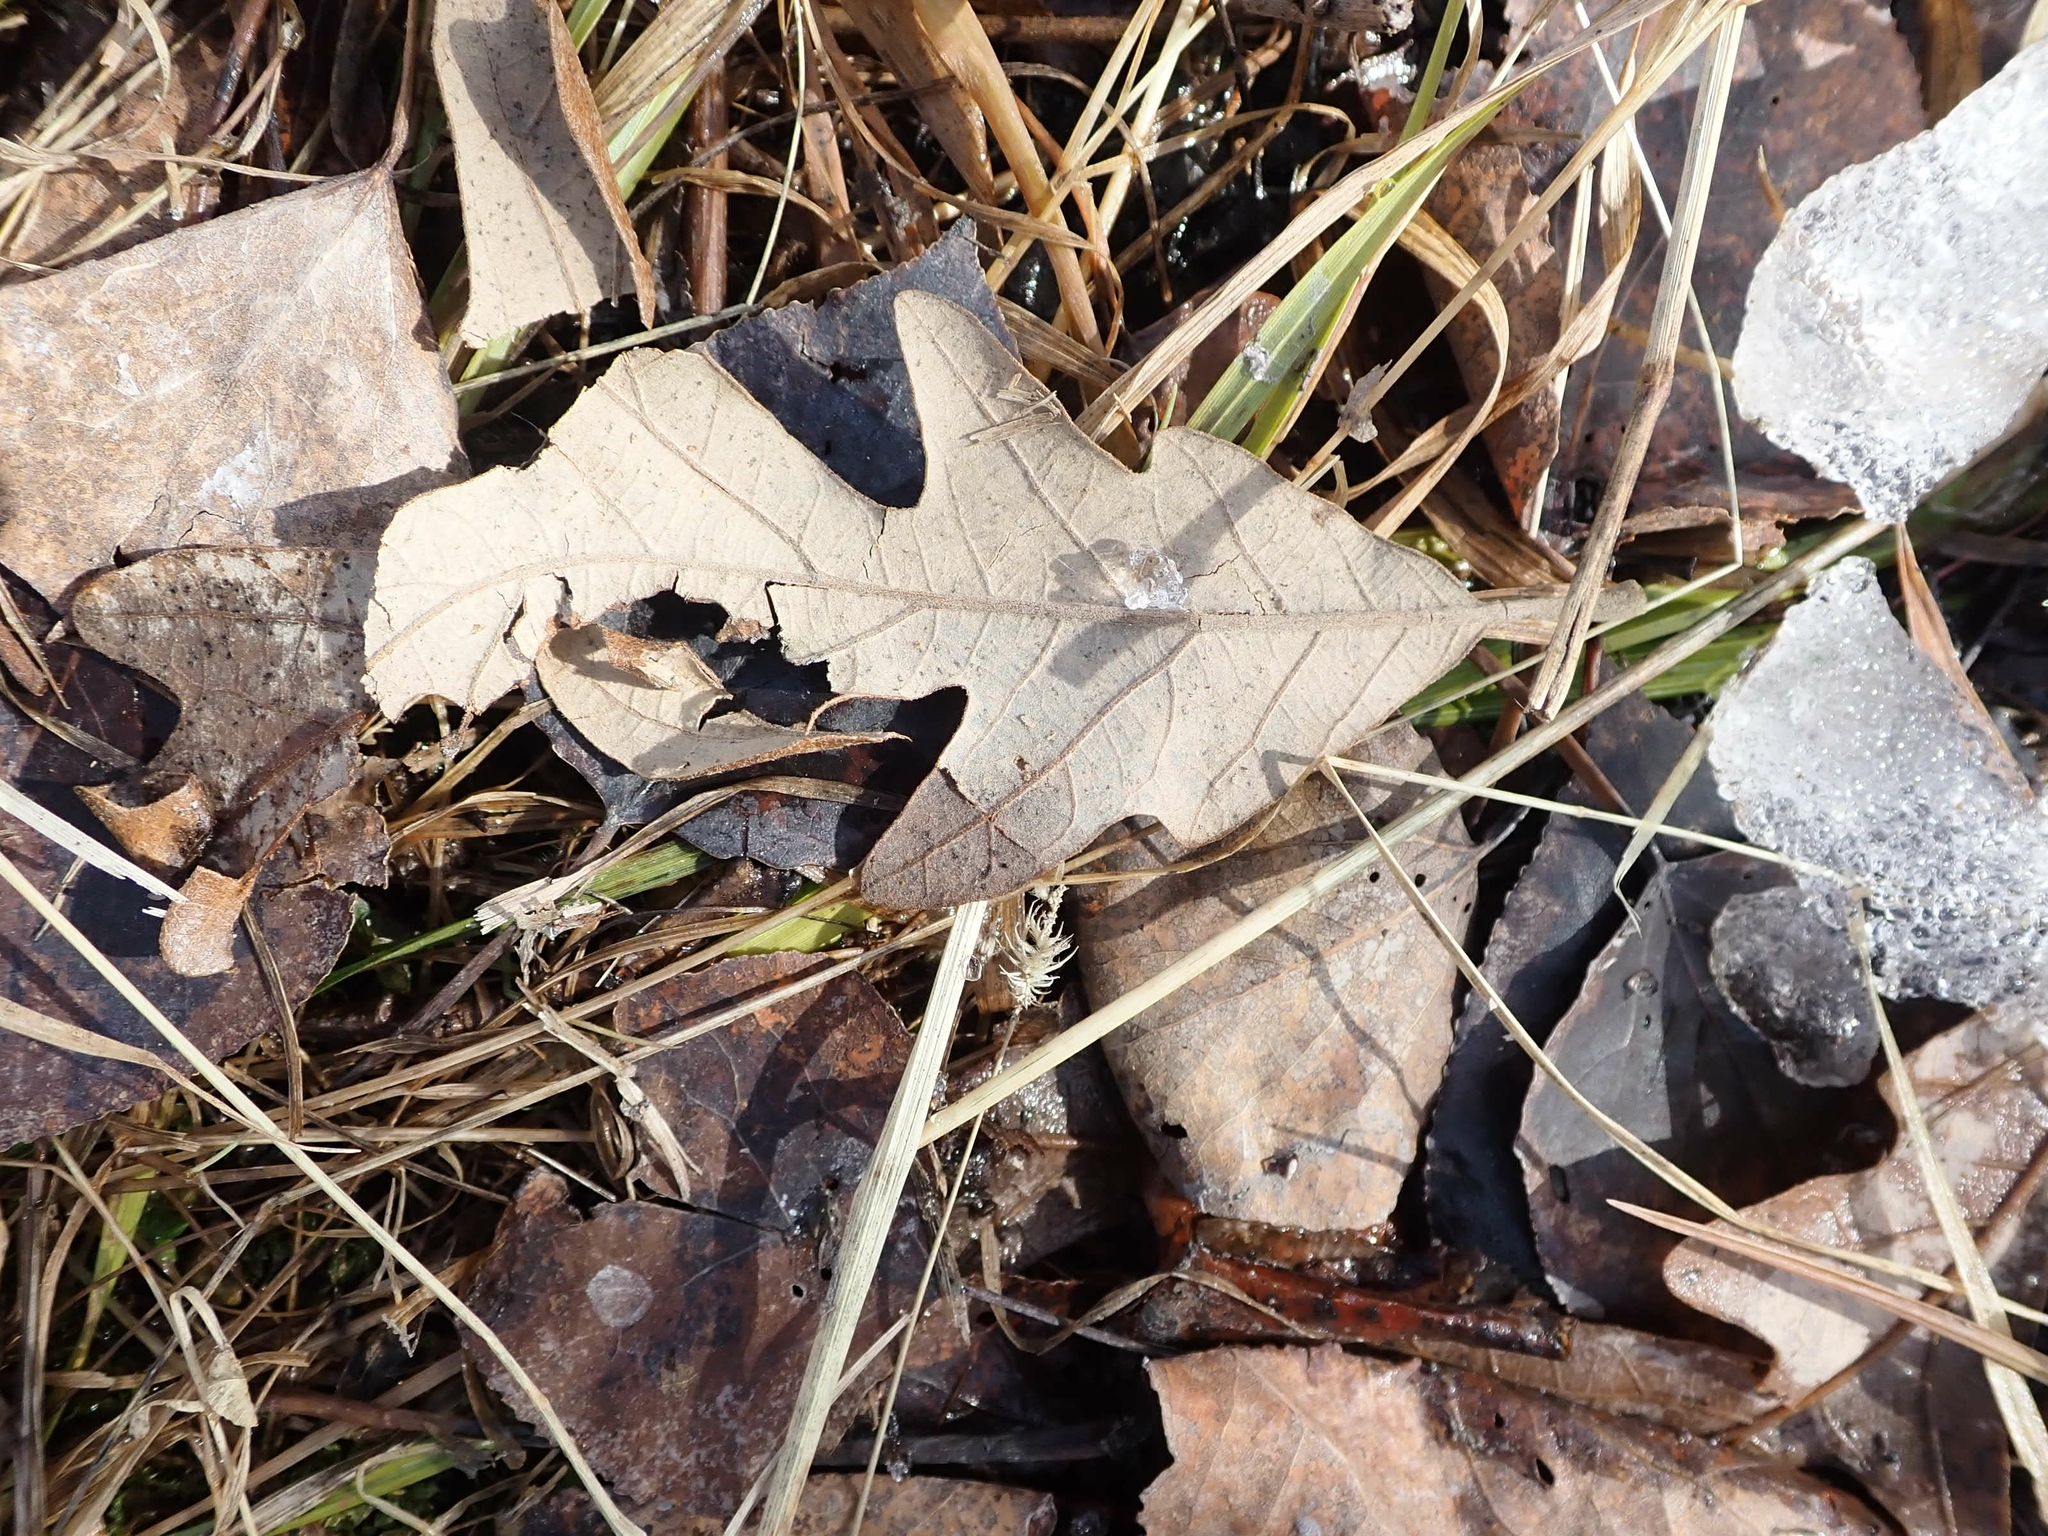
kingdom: Plantae
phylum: Tracheophyta
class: Magnoliopsida
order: Fagales
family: Fagaceae
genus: Quercus
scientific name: Quercus macrocarpa
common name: Bur oak
